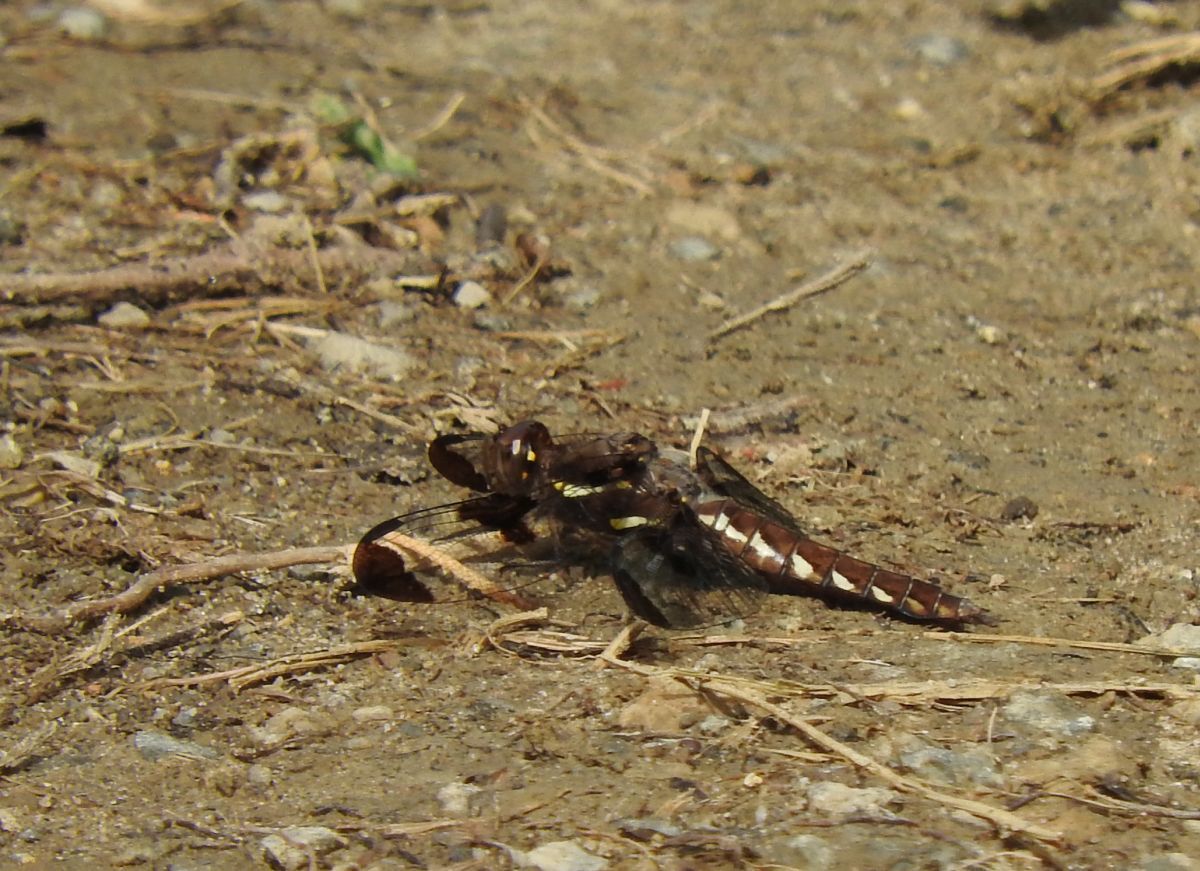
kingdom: Animalia
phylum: Arthropoda
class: Insecta
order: Odonata
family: Libellulidae
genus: Plathemis
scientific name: Plathemis lydia
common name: Common whitetail
